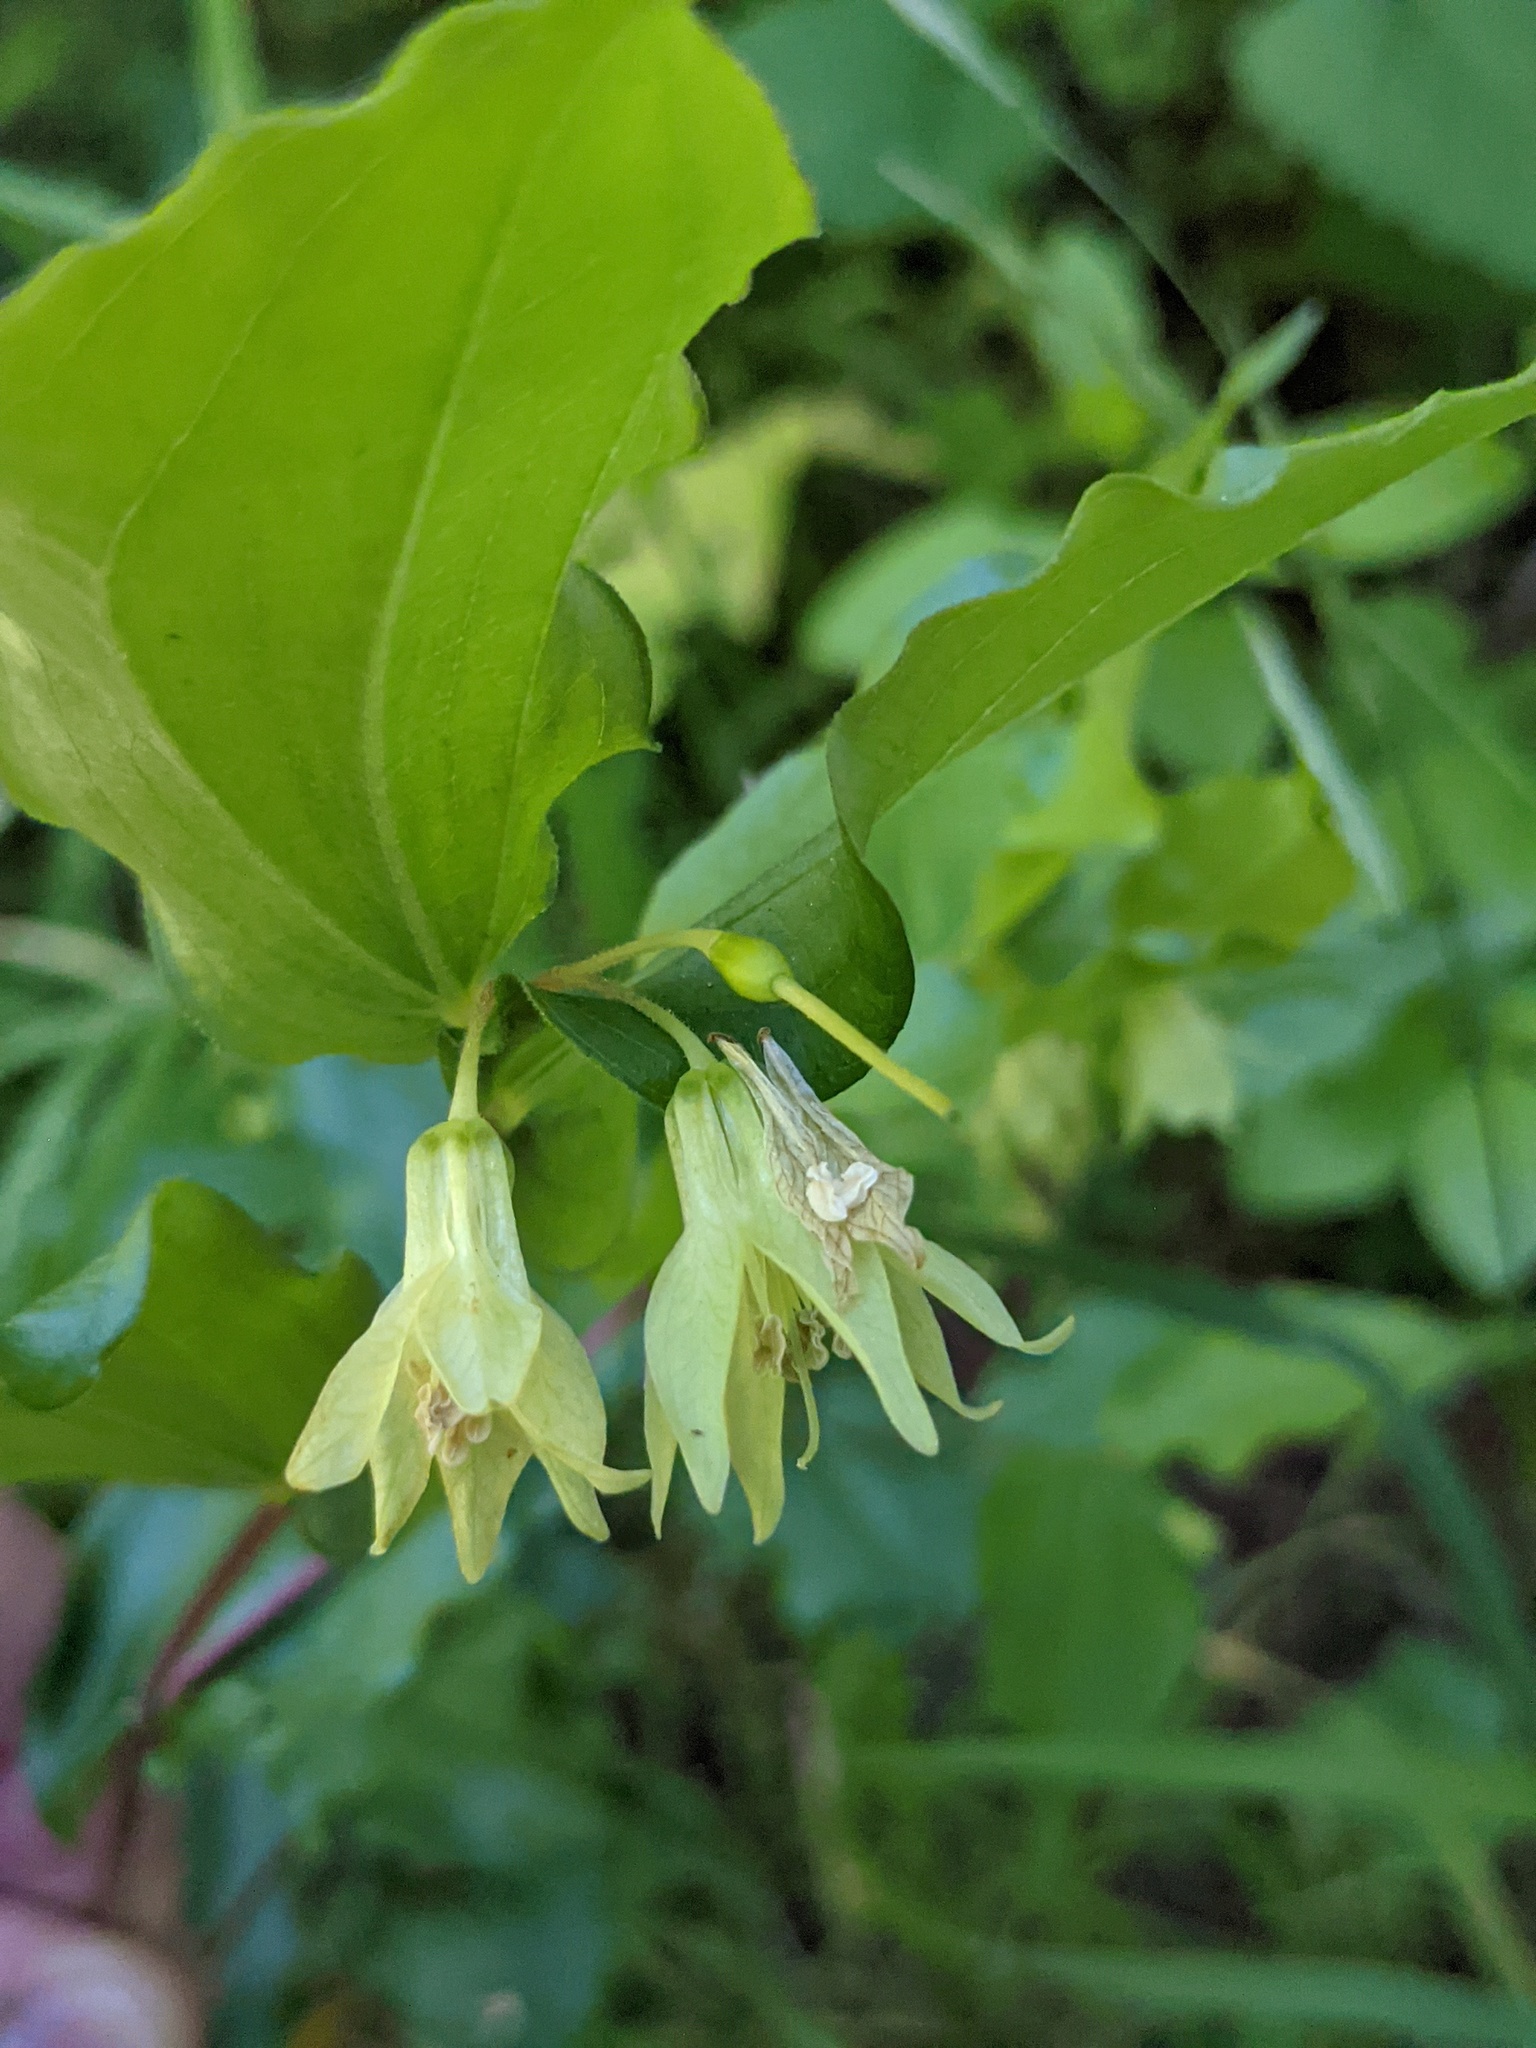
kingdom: Plantae
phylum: Tracheophyta
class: Liliopsida
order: Liliales
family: Liliaceae
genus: Prosartes
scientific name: Prosartes hookeri
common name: Fairy-bells
